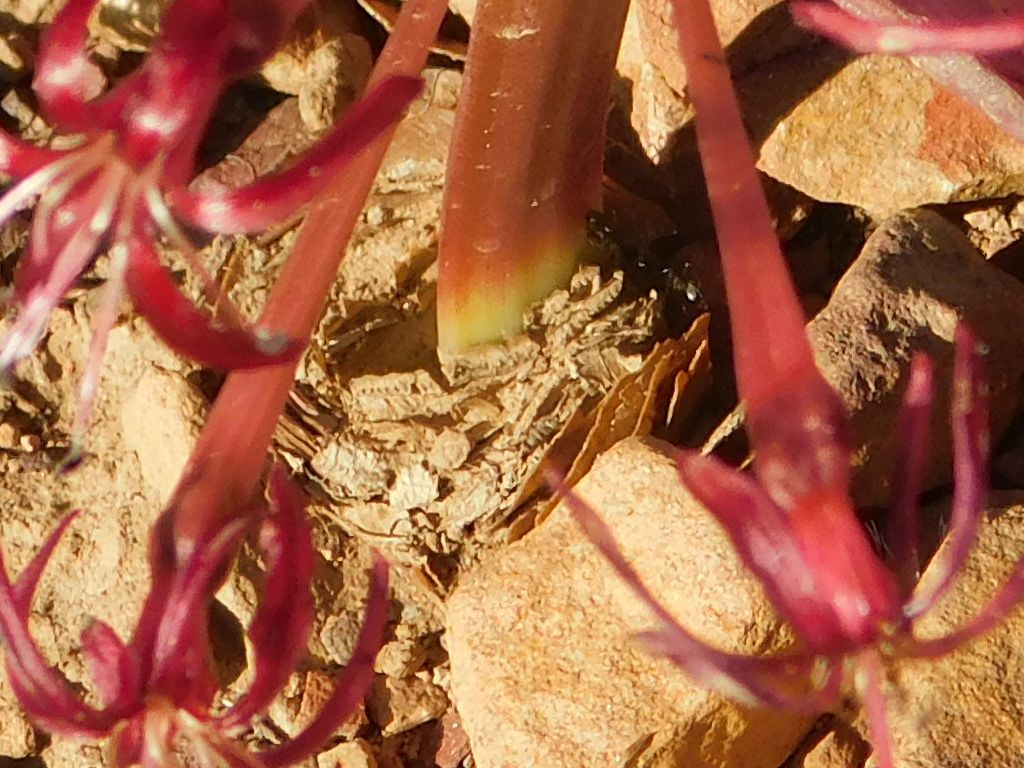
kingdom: Plantae
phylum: Tracheophyta
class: Liliopsida
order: Asparagales
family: Amaryllidaceae
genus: Boophone
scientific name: Boophone disticha
